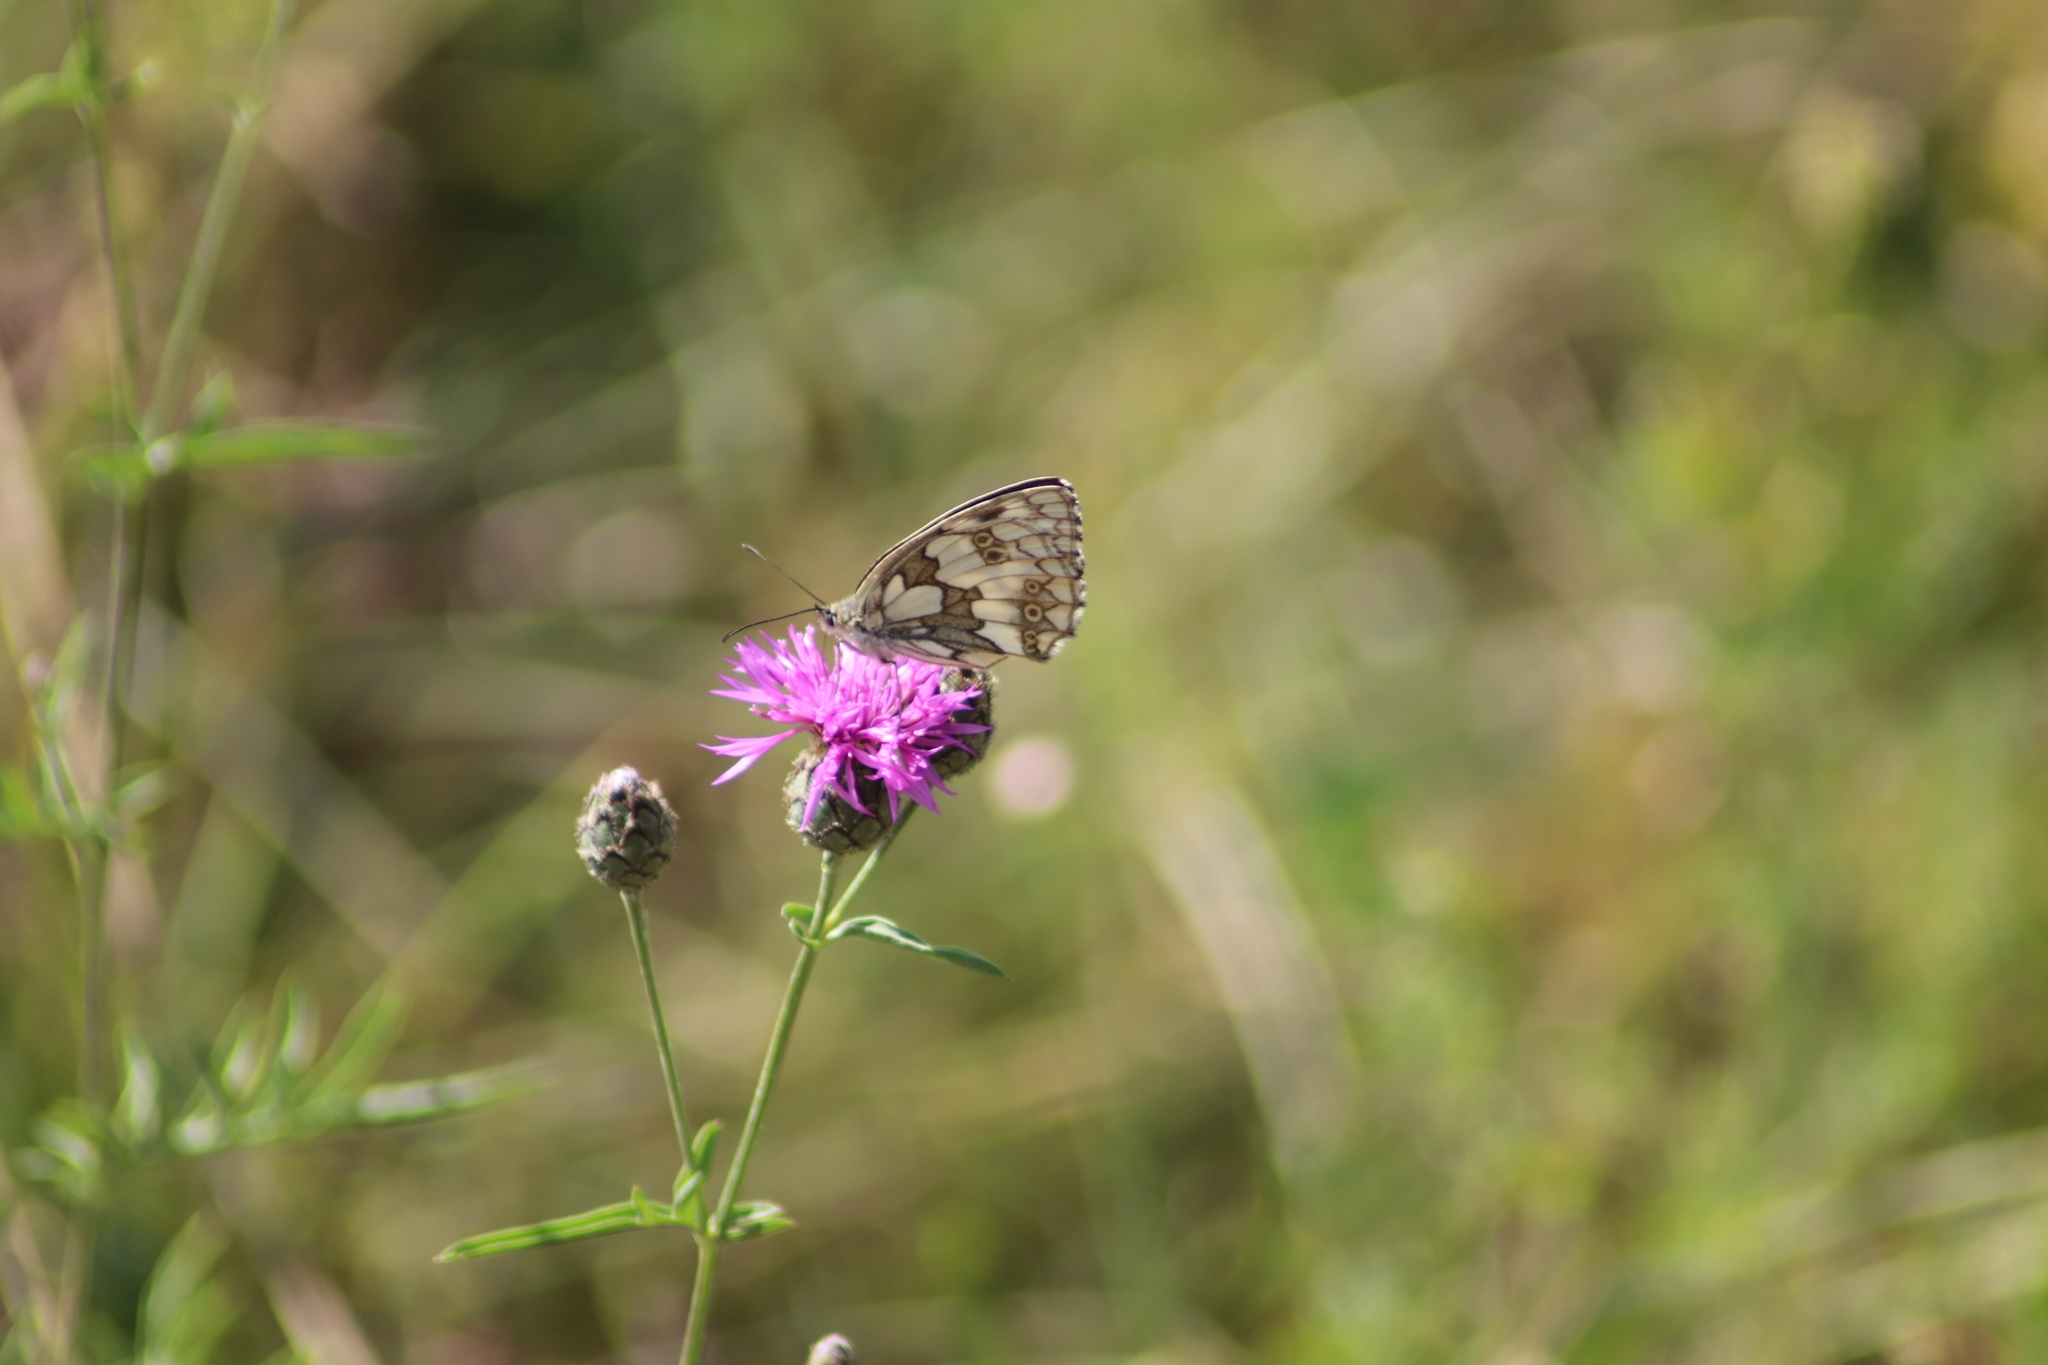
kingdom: Animalia
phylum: Arthropoda
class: Insecta
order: Lepidoptera
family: Nymphalidae
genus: Melanargia
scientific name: Melanargia galathea
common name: Marbled white
